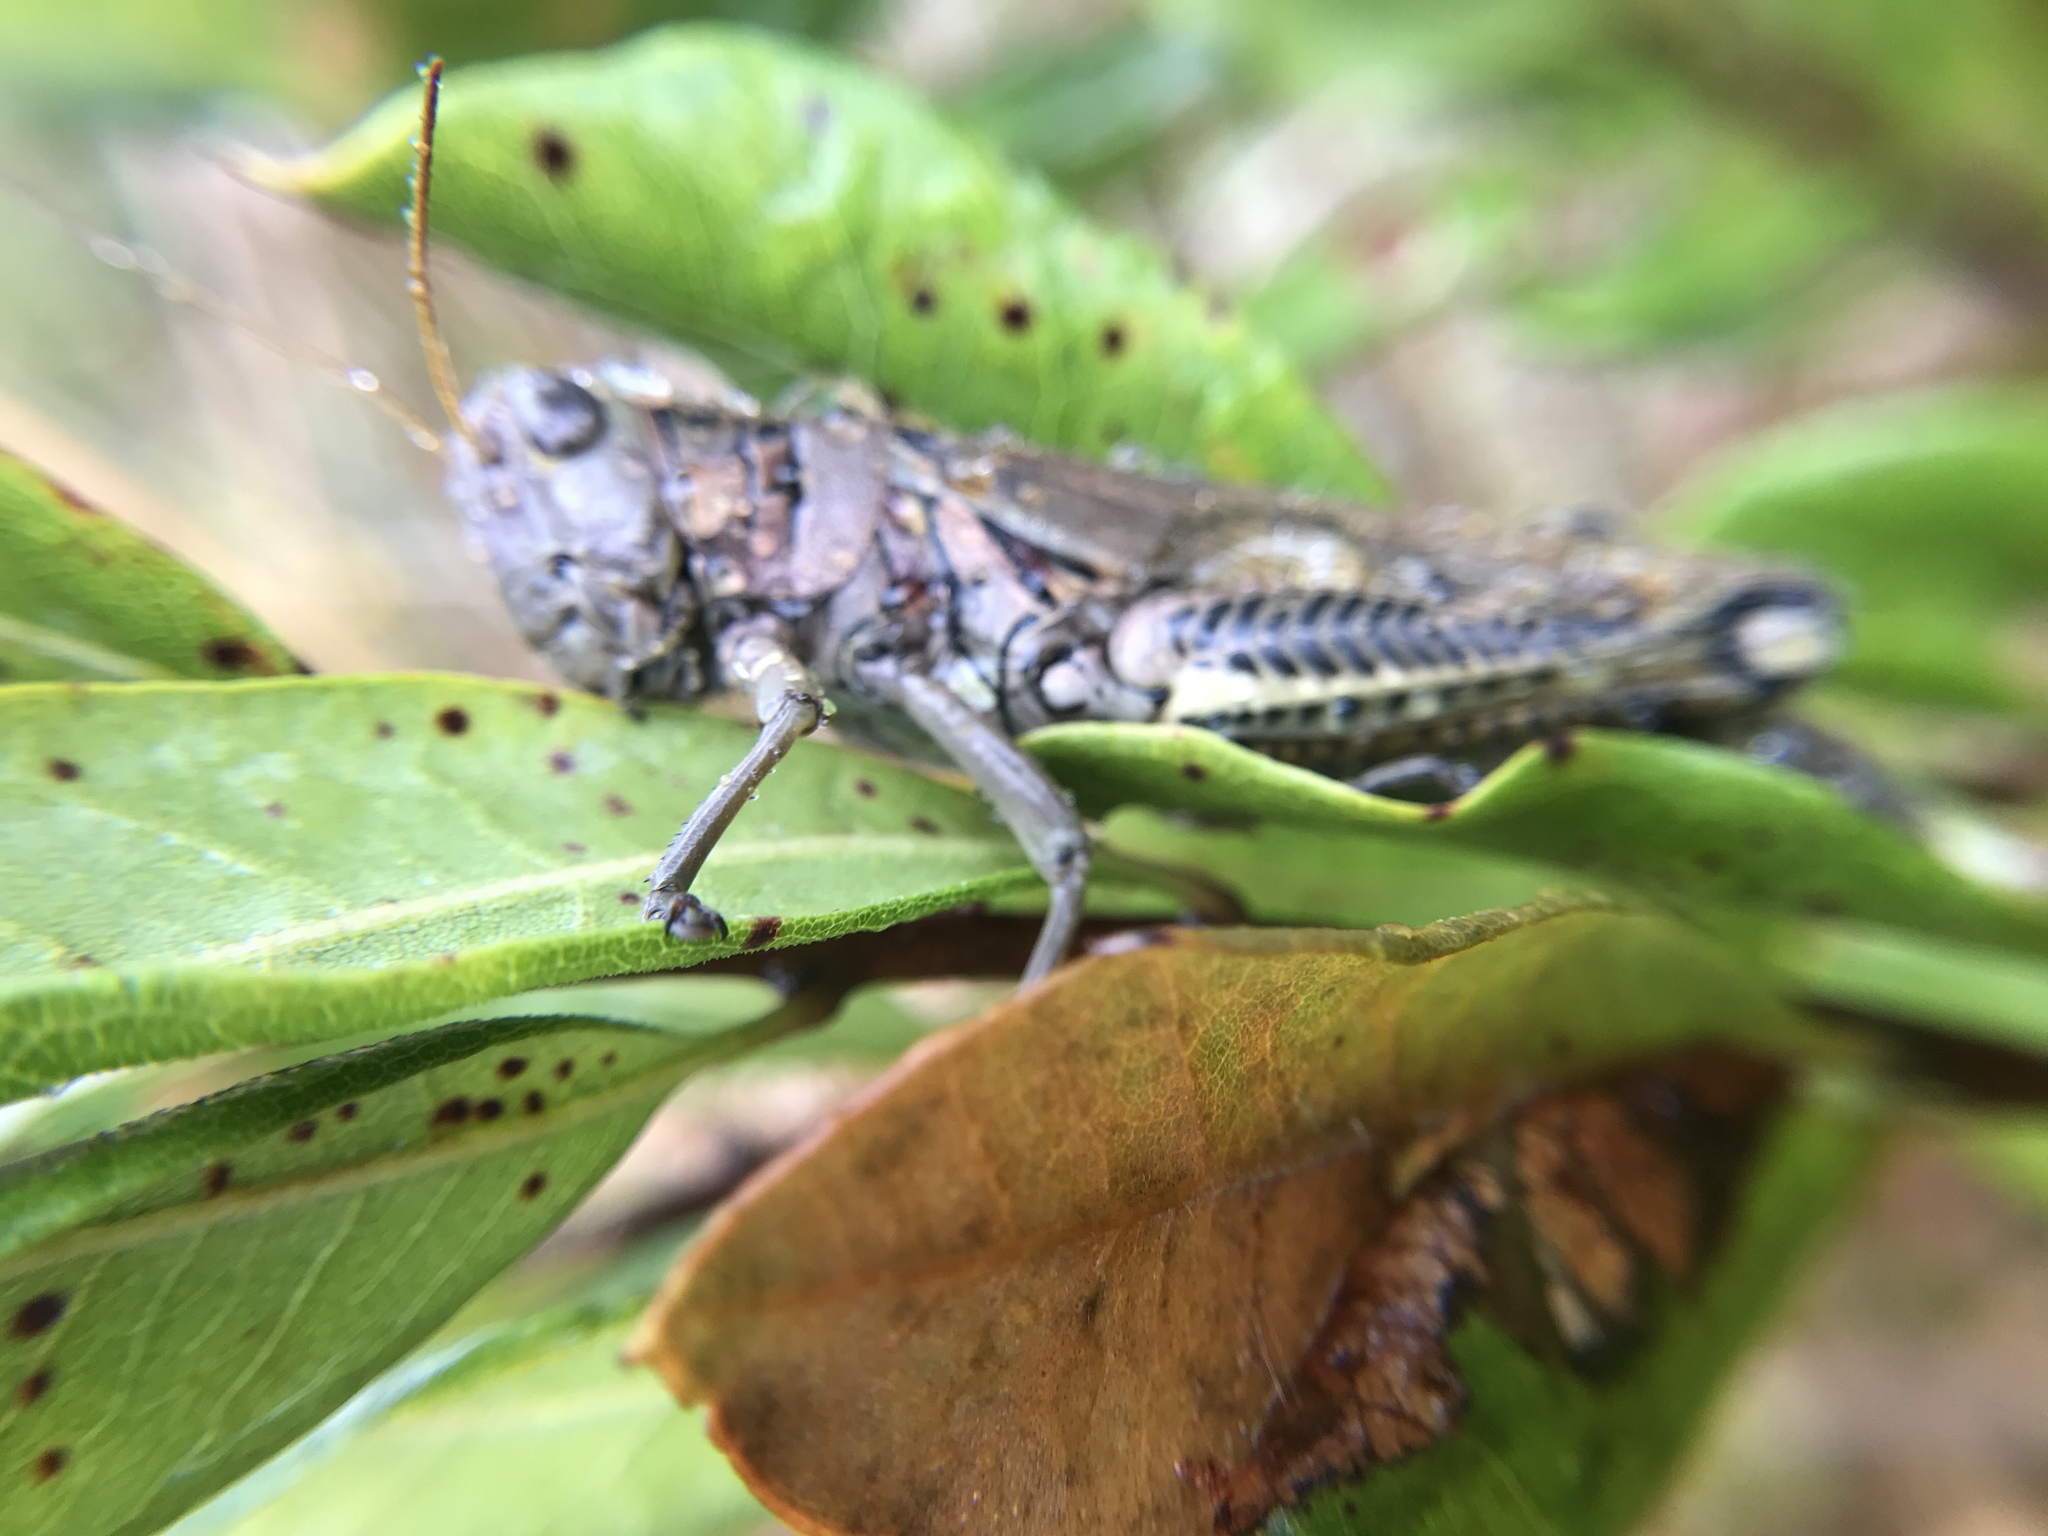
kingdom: Animalia
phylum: Arthropoda
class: Insecta
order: Orthoptera
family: Acrididae
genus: Melanoplus
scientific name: Melanoplus differentialis
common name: Differential grasshopper
